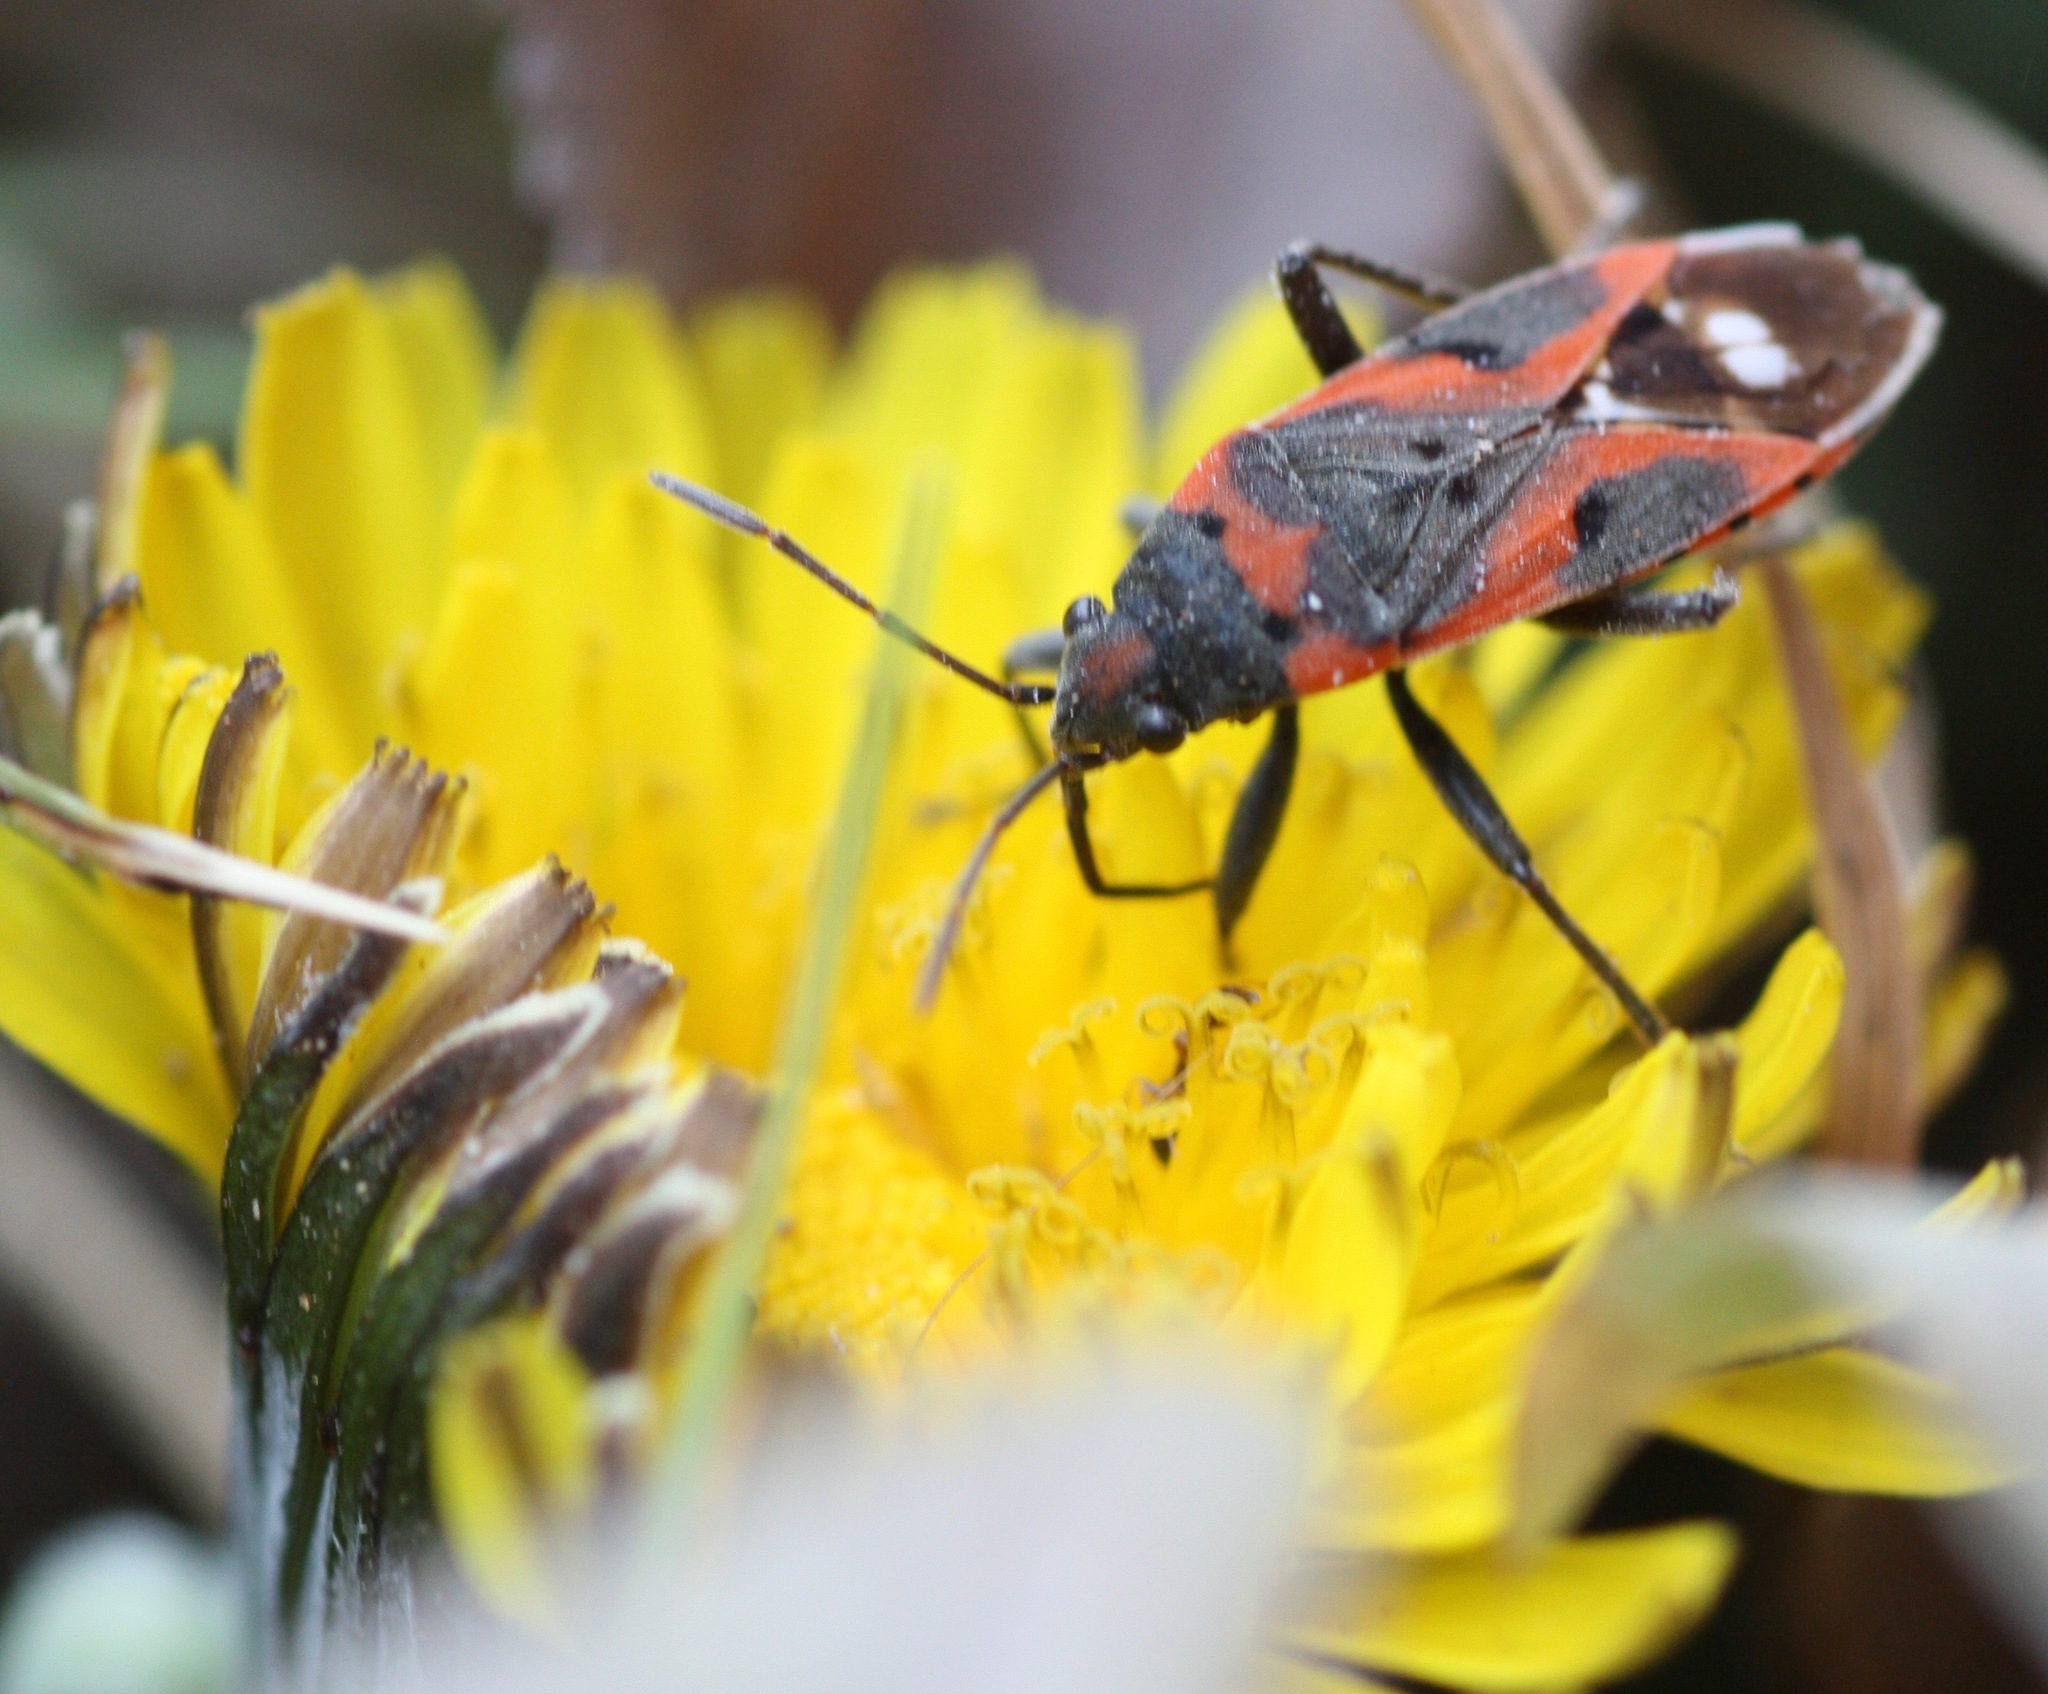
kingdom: Animalia
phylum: Arthropoda
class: Insecta
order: Hemiptera
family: Lygaeidae
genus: Lygaeus
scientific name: Lygaeus kalmii
